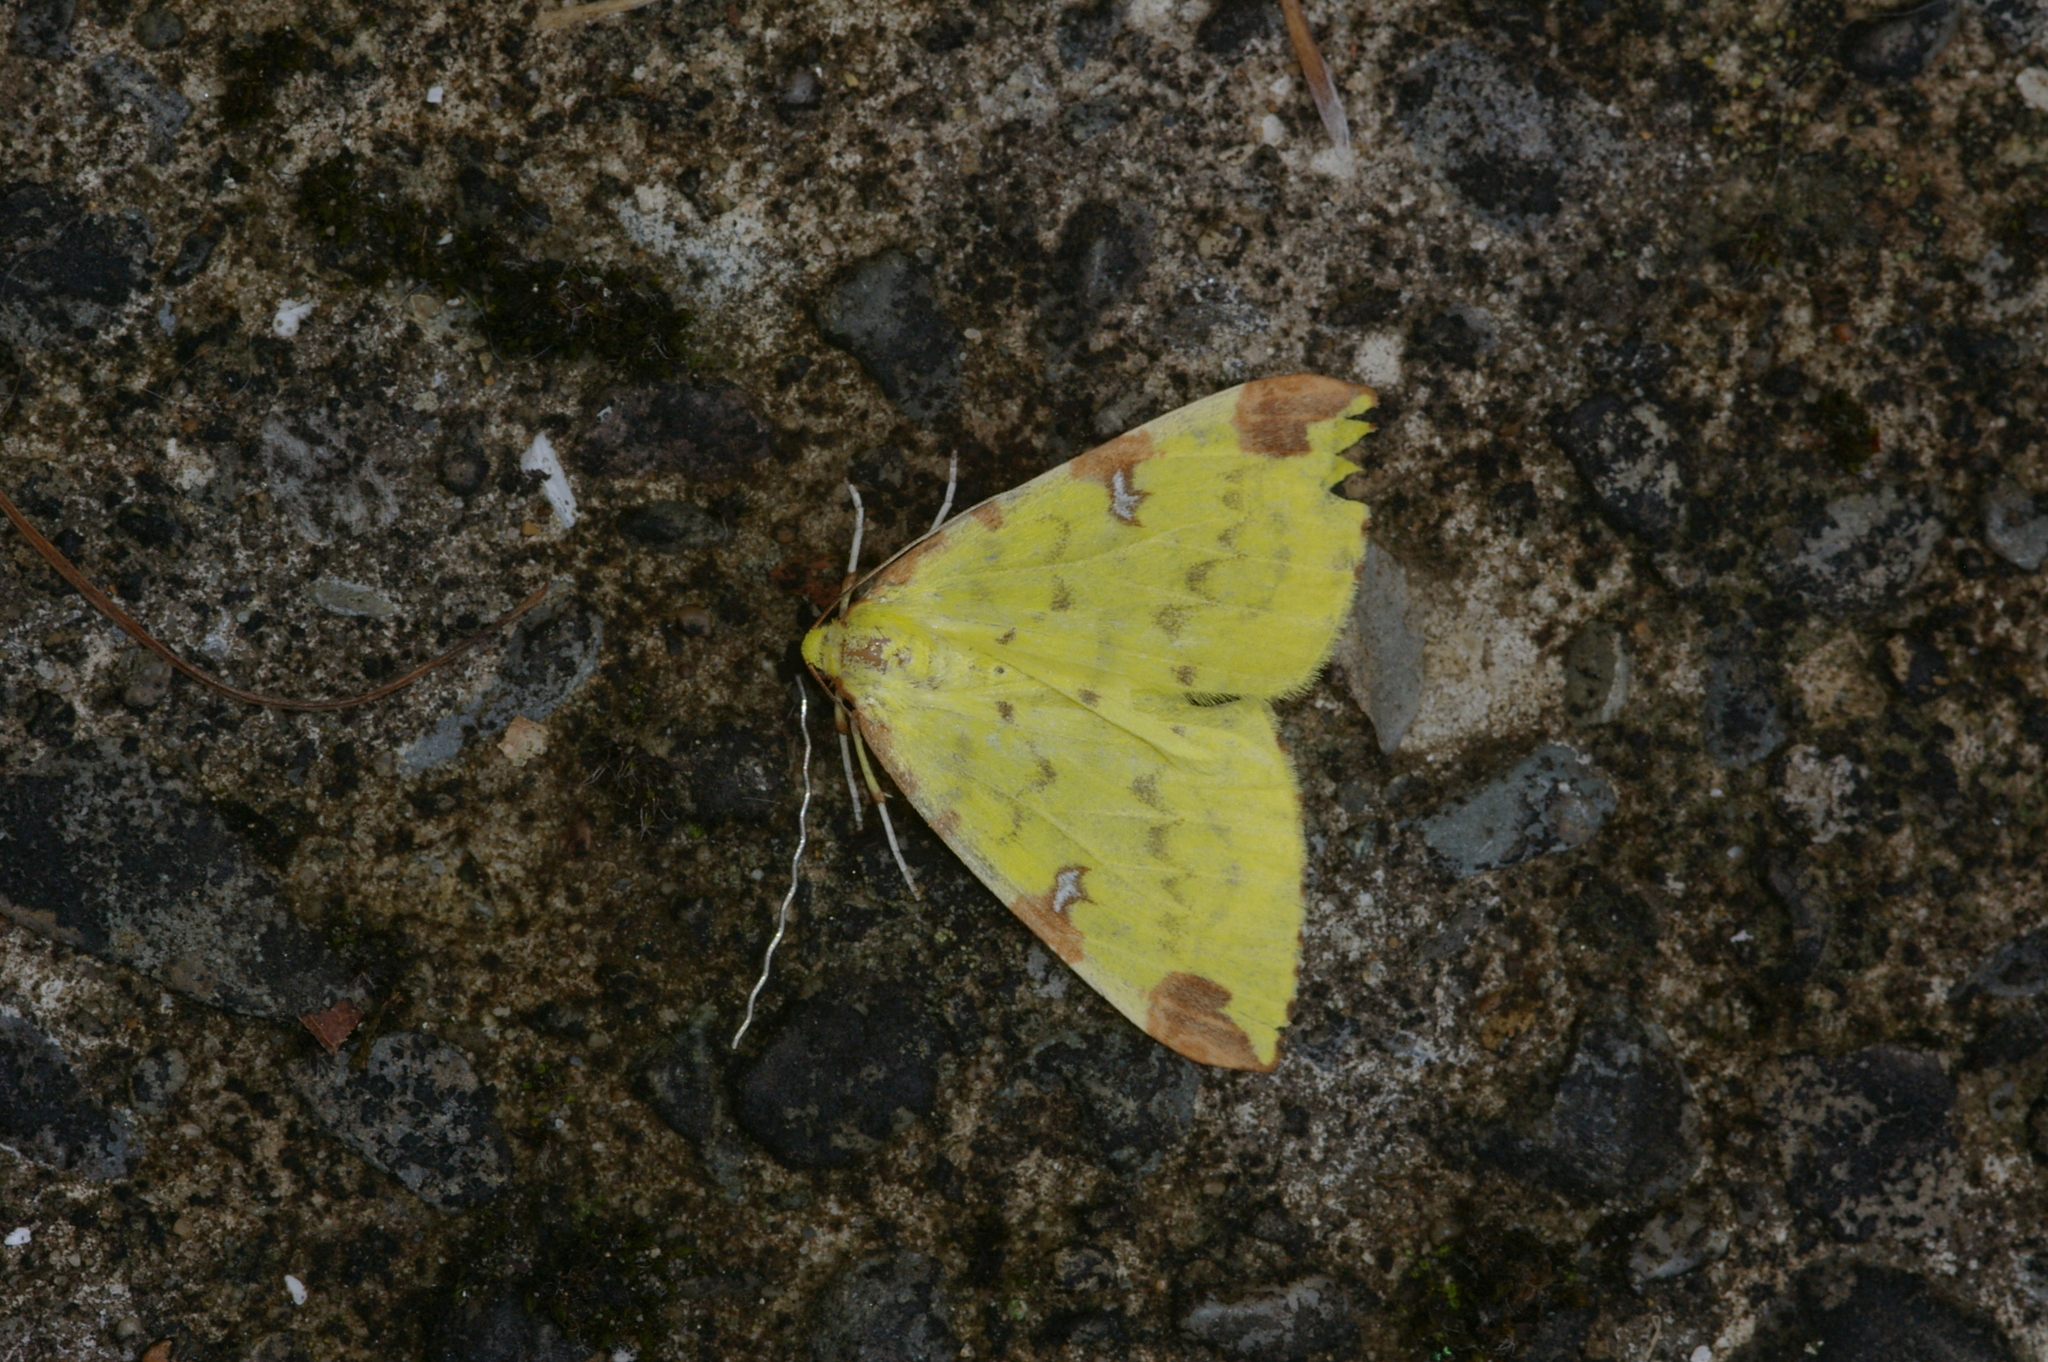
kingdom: Animalia
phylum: Arthropoda
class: Insecta
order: Lepidoptera
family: Geometridae
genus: Opisthograptis
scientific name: Opisthograptis luteolata
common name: Brimstone moth
